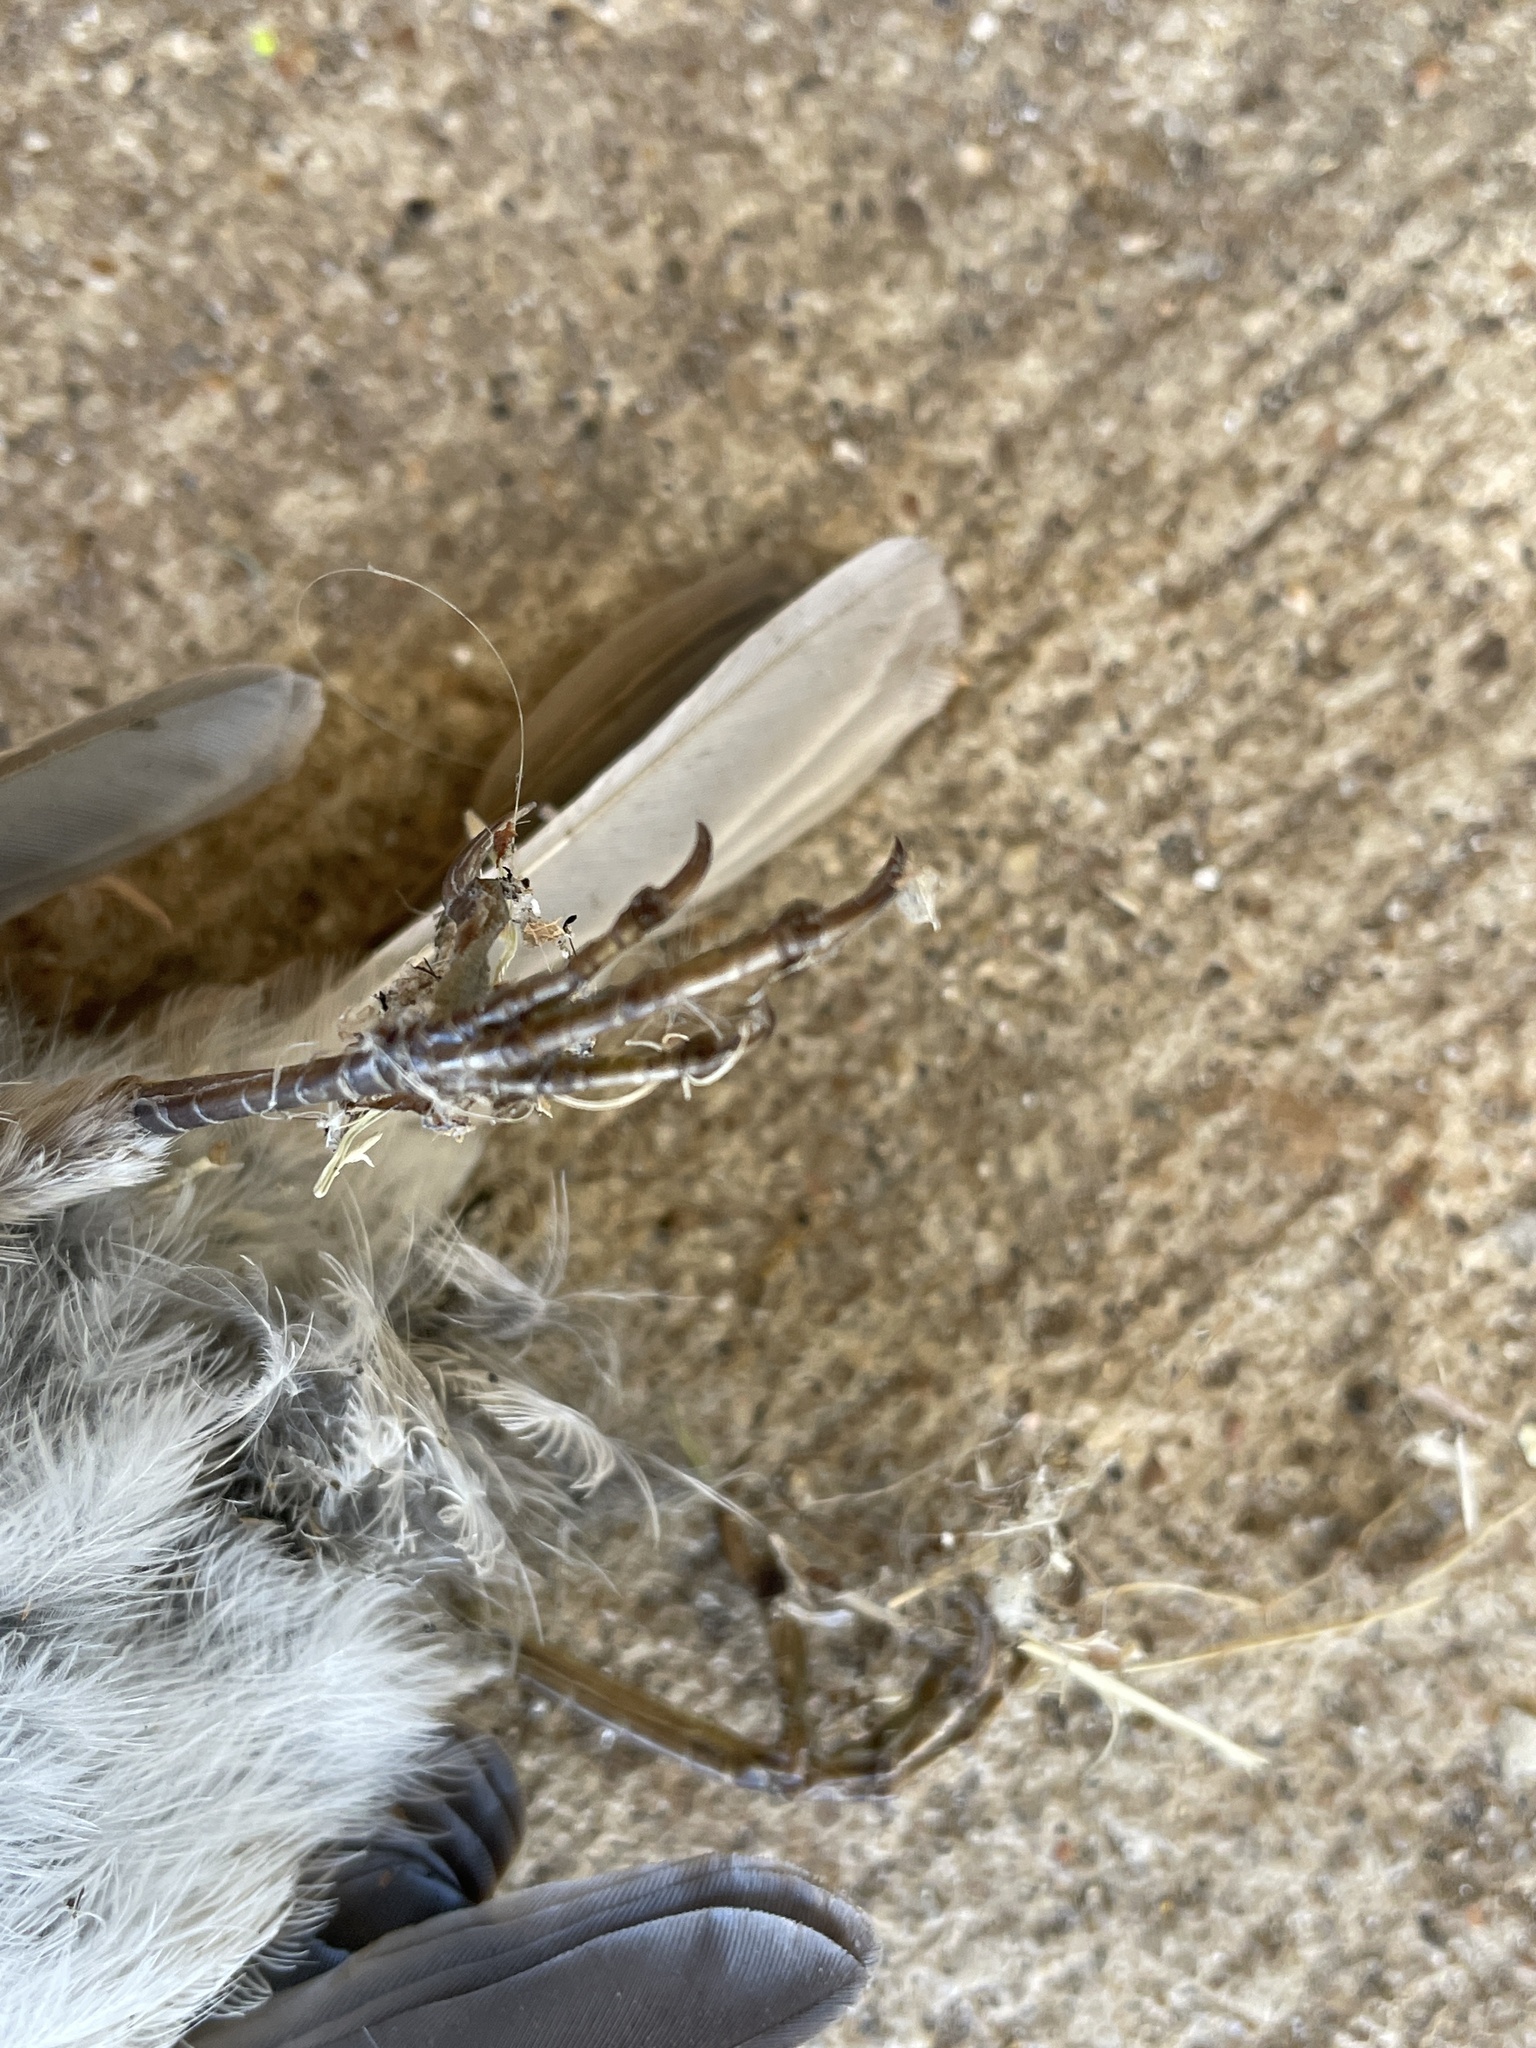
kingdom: Animalia
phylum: Chordata
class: Aves
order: Passeriformes
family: Passeridae
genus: Passer
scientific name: Passer domesticus
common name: House sparrow
